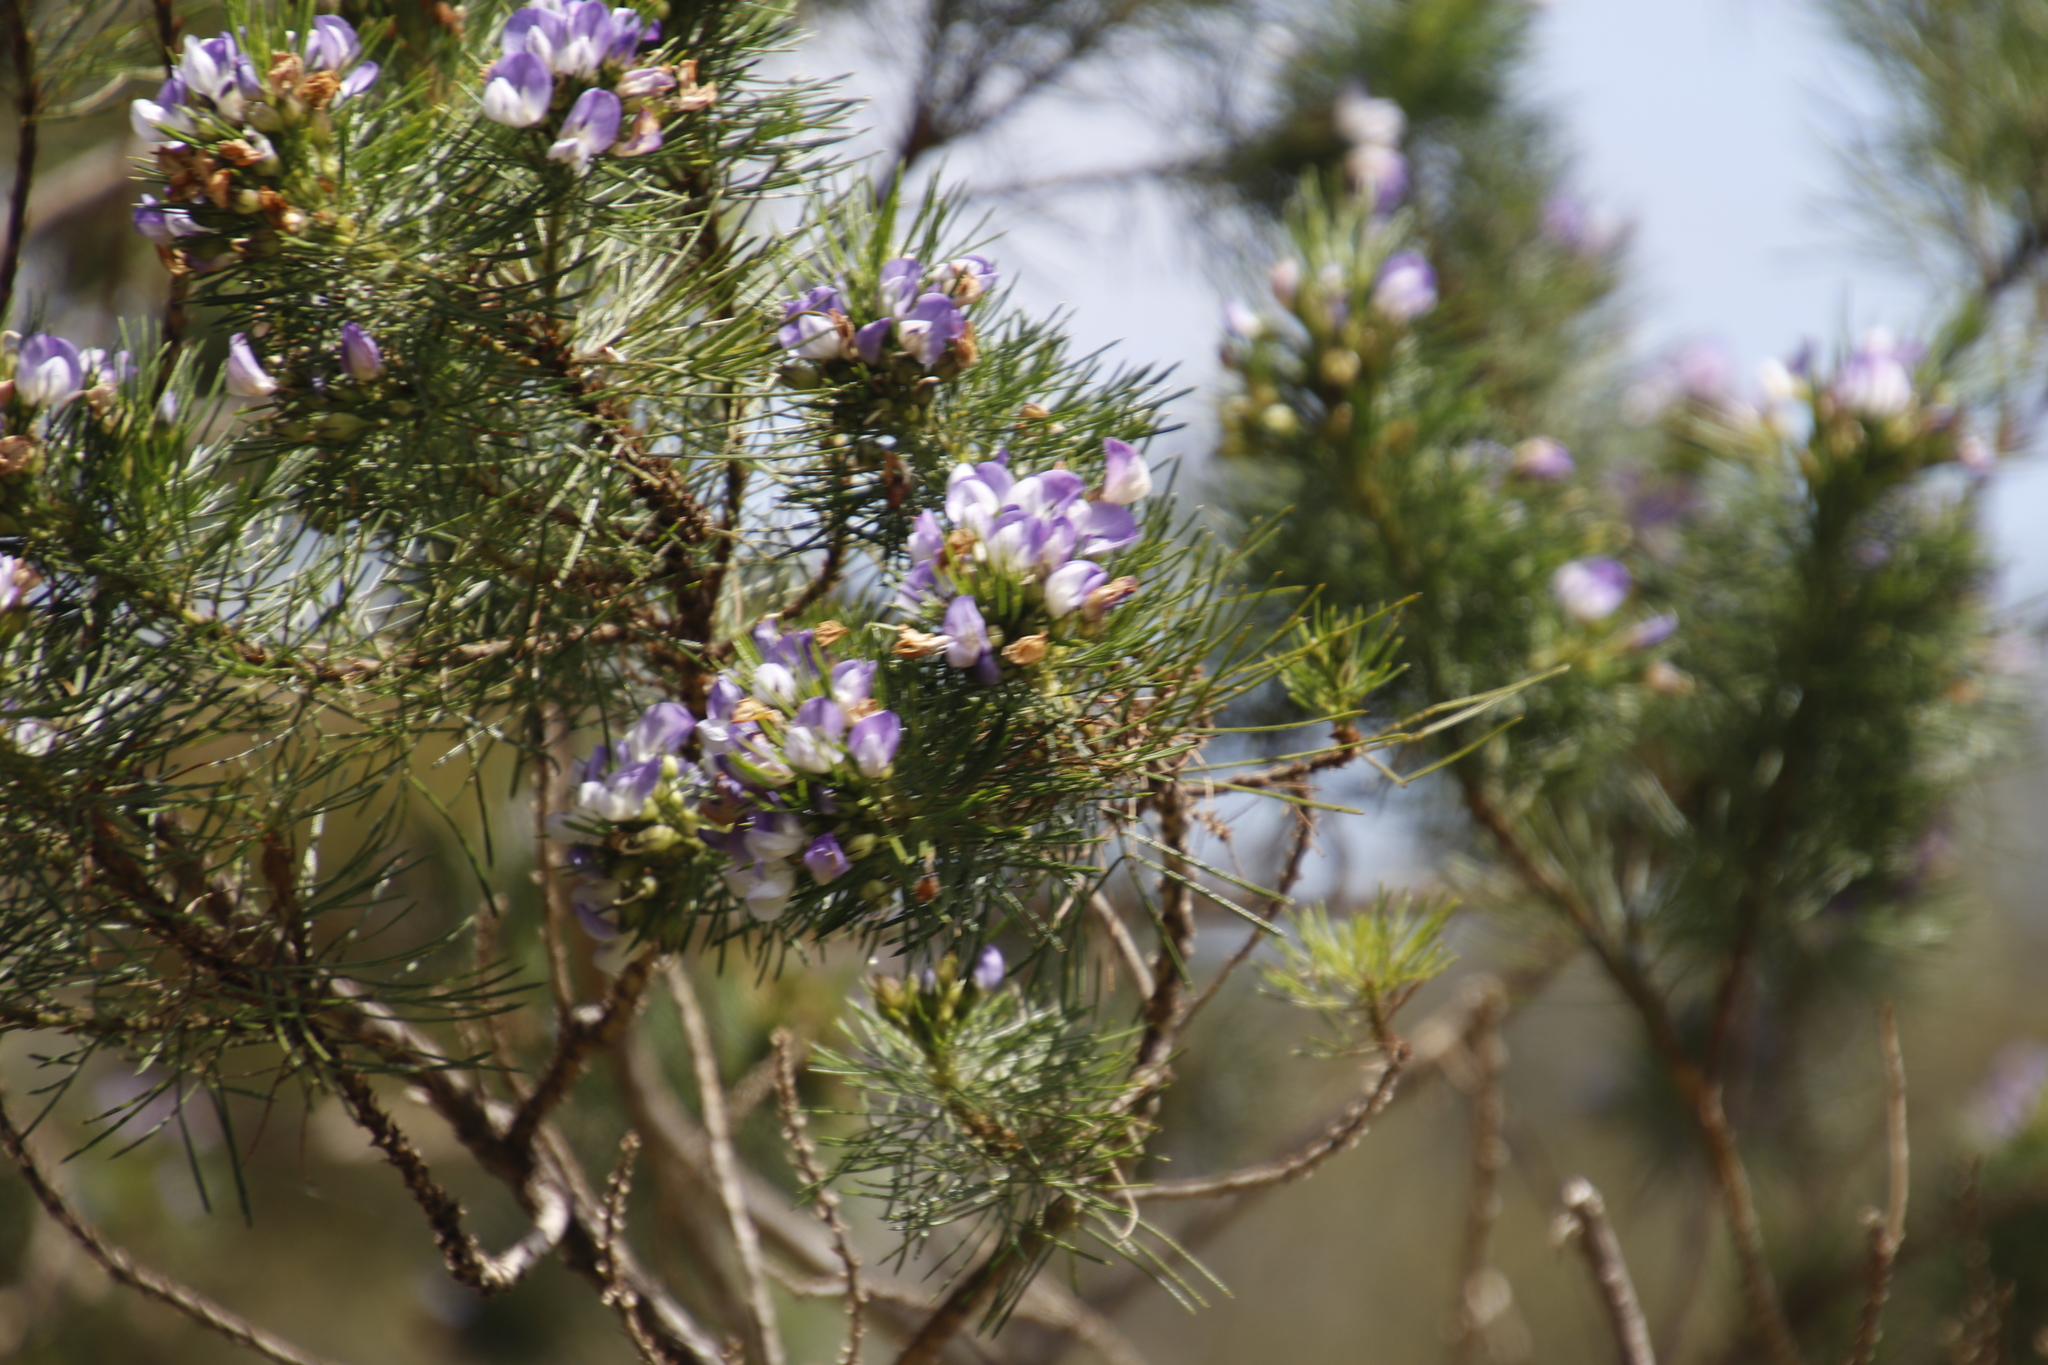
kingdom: Plantae
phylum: Tracheophyta
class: Magnoliopsida
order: Fabales
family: Fabaceae
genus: Psoralea
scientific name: Psoralea pinnata
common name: African scurfpea
